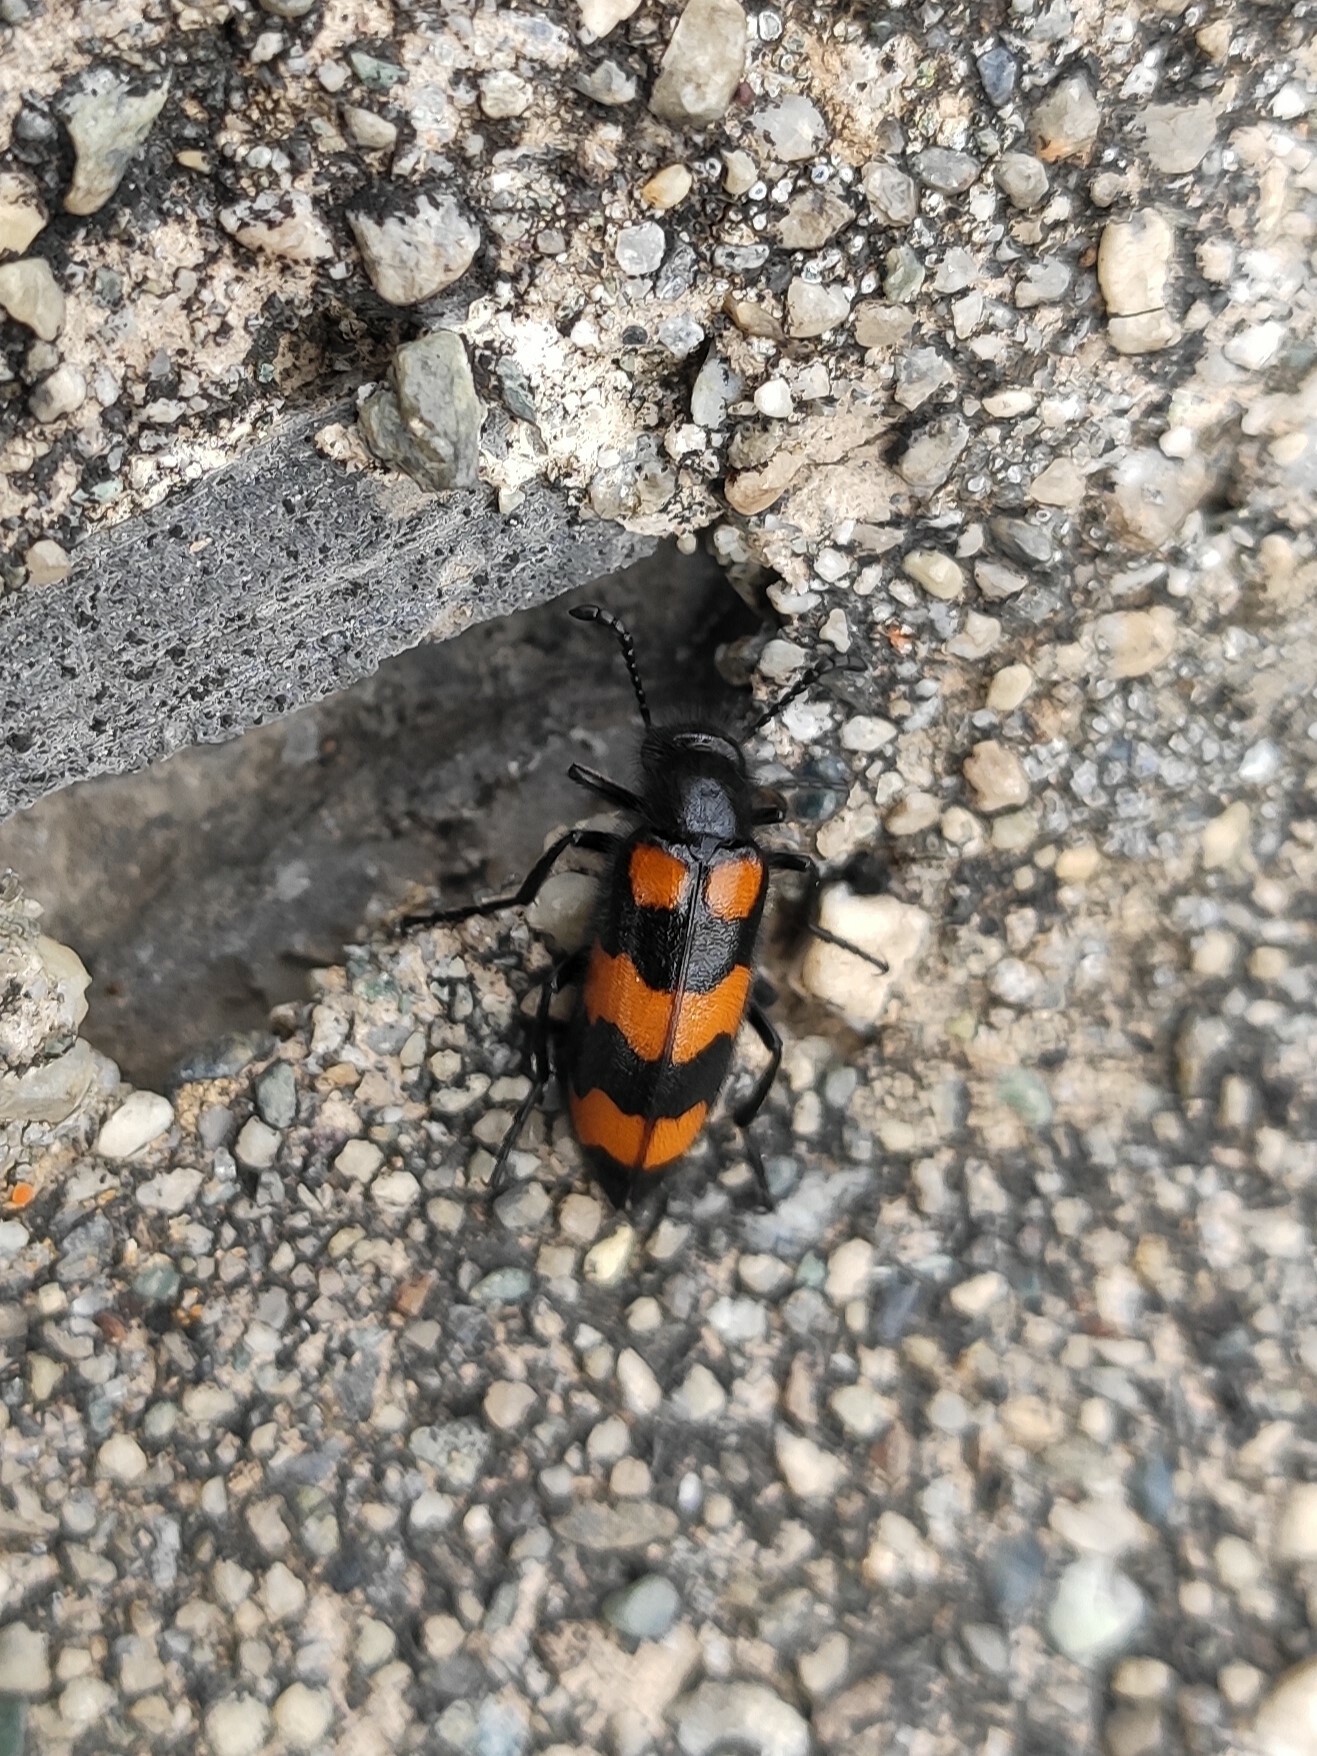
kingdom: Animalia
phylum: Arthropoda
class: Insecta
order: Coleoptera
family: Meloidae
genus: Mylabris
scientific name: Mylabris variabilis
